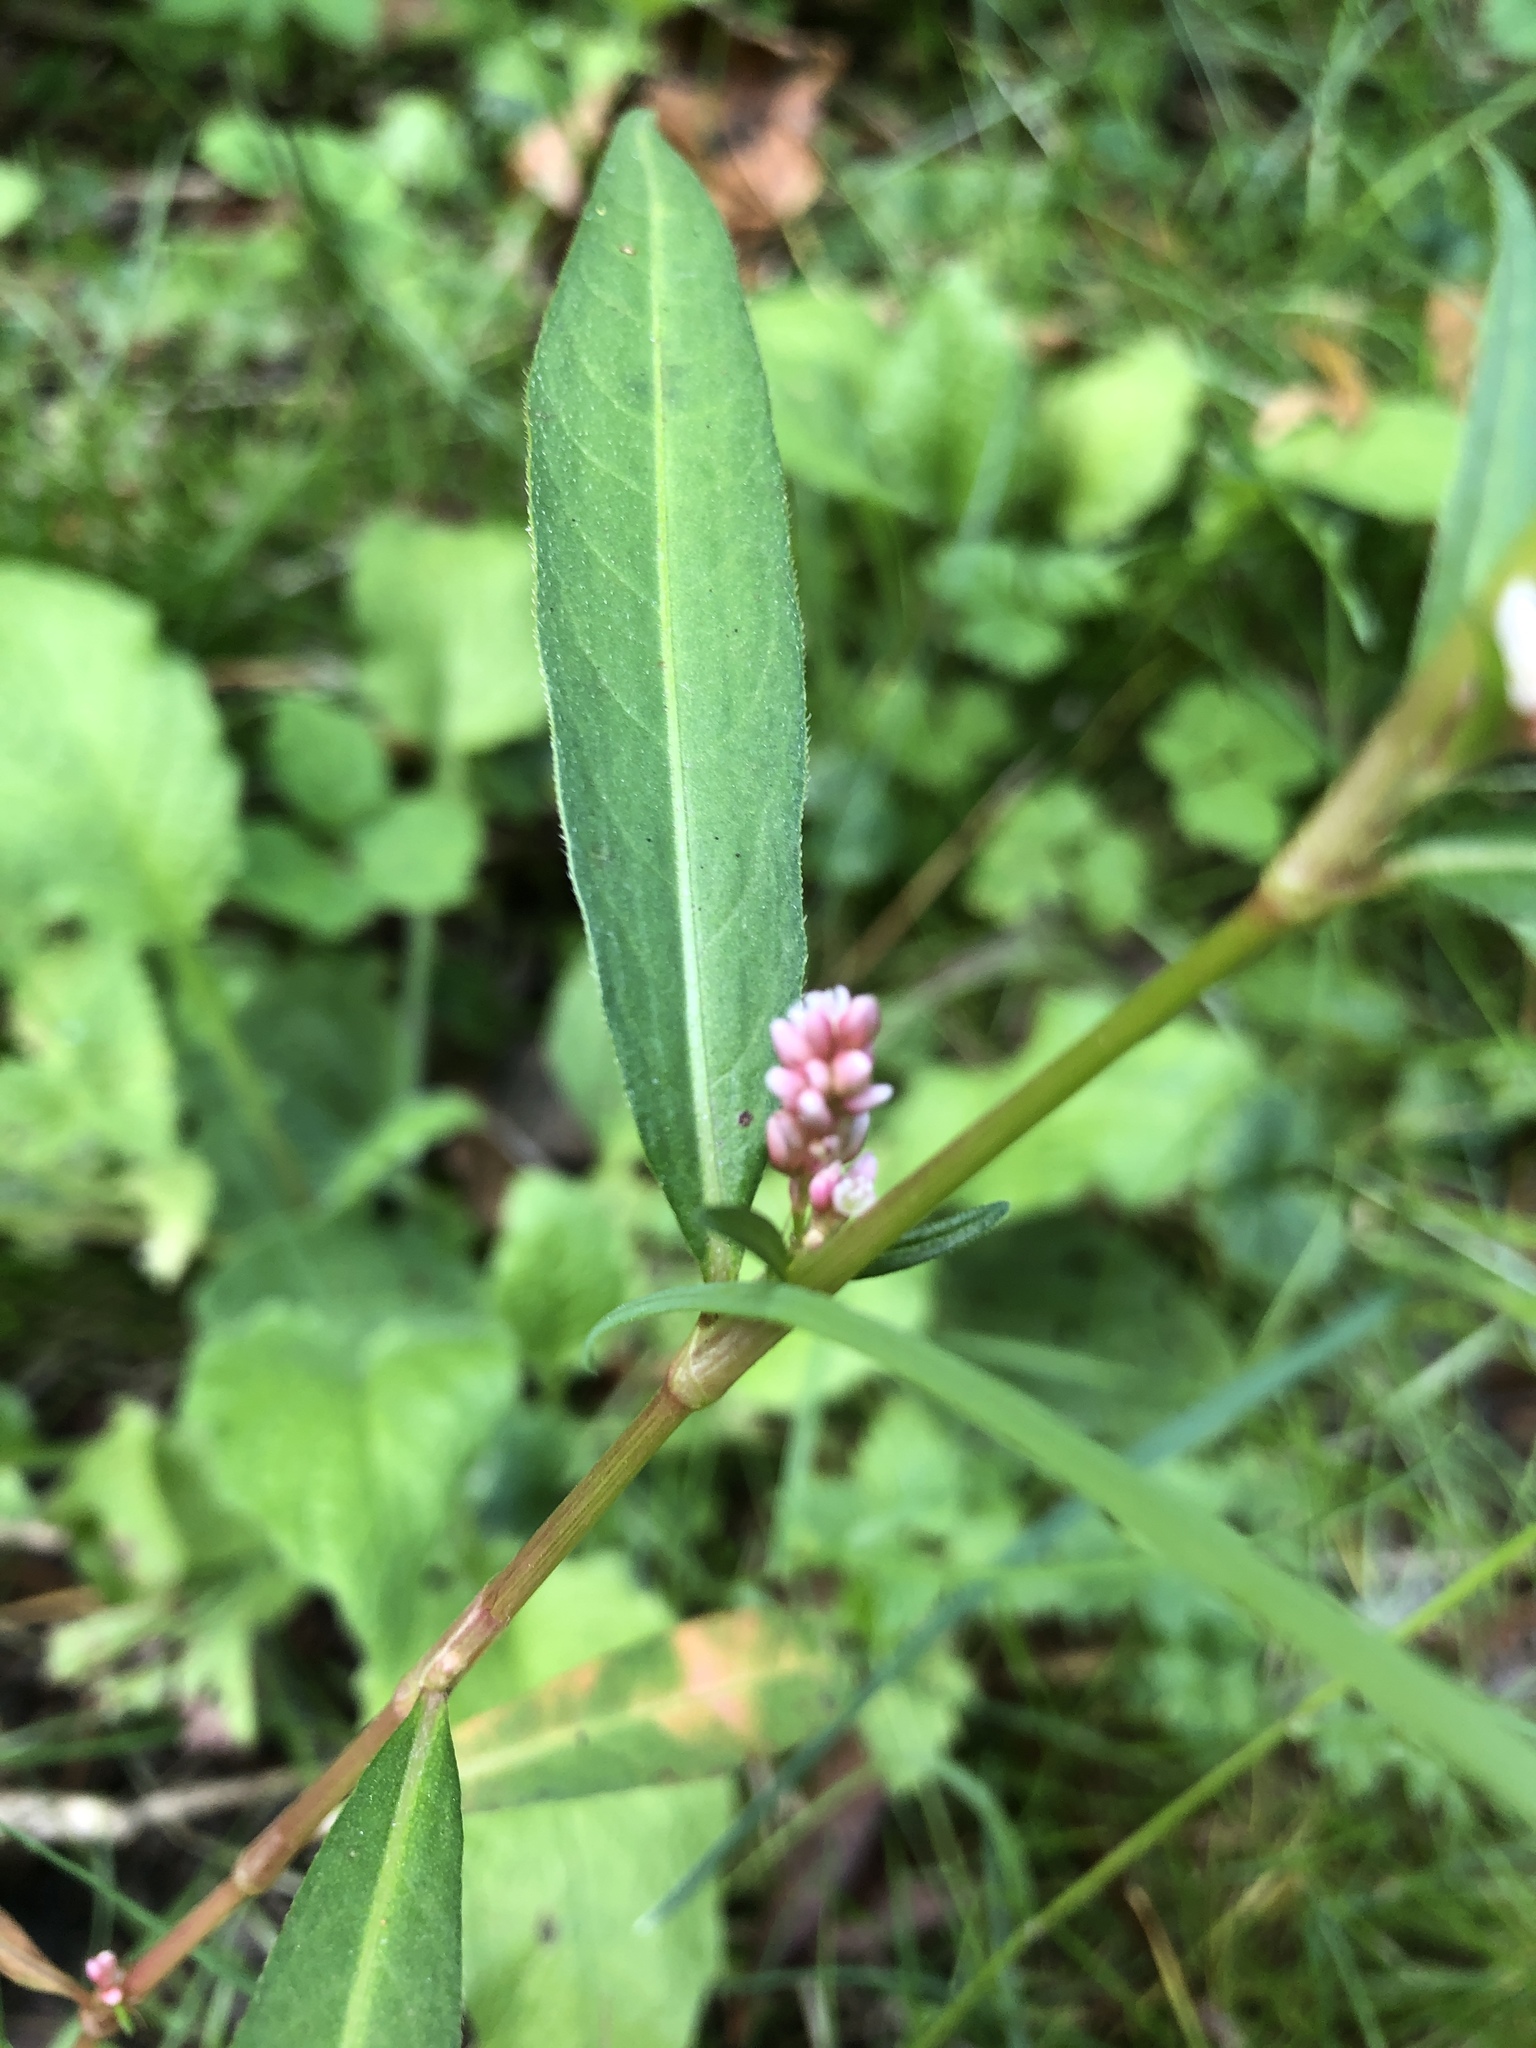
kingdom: Plantae
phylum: Tracheophyta
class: Magnoliopsida
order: Caryophyllales
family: Polygonaceae
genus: Persicaria
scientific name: Persicaria maculosa
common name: Redshank
